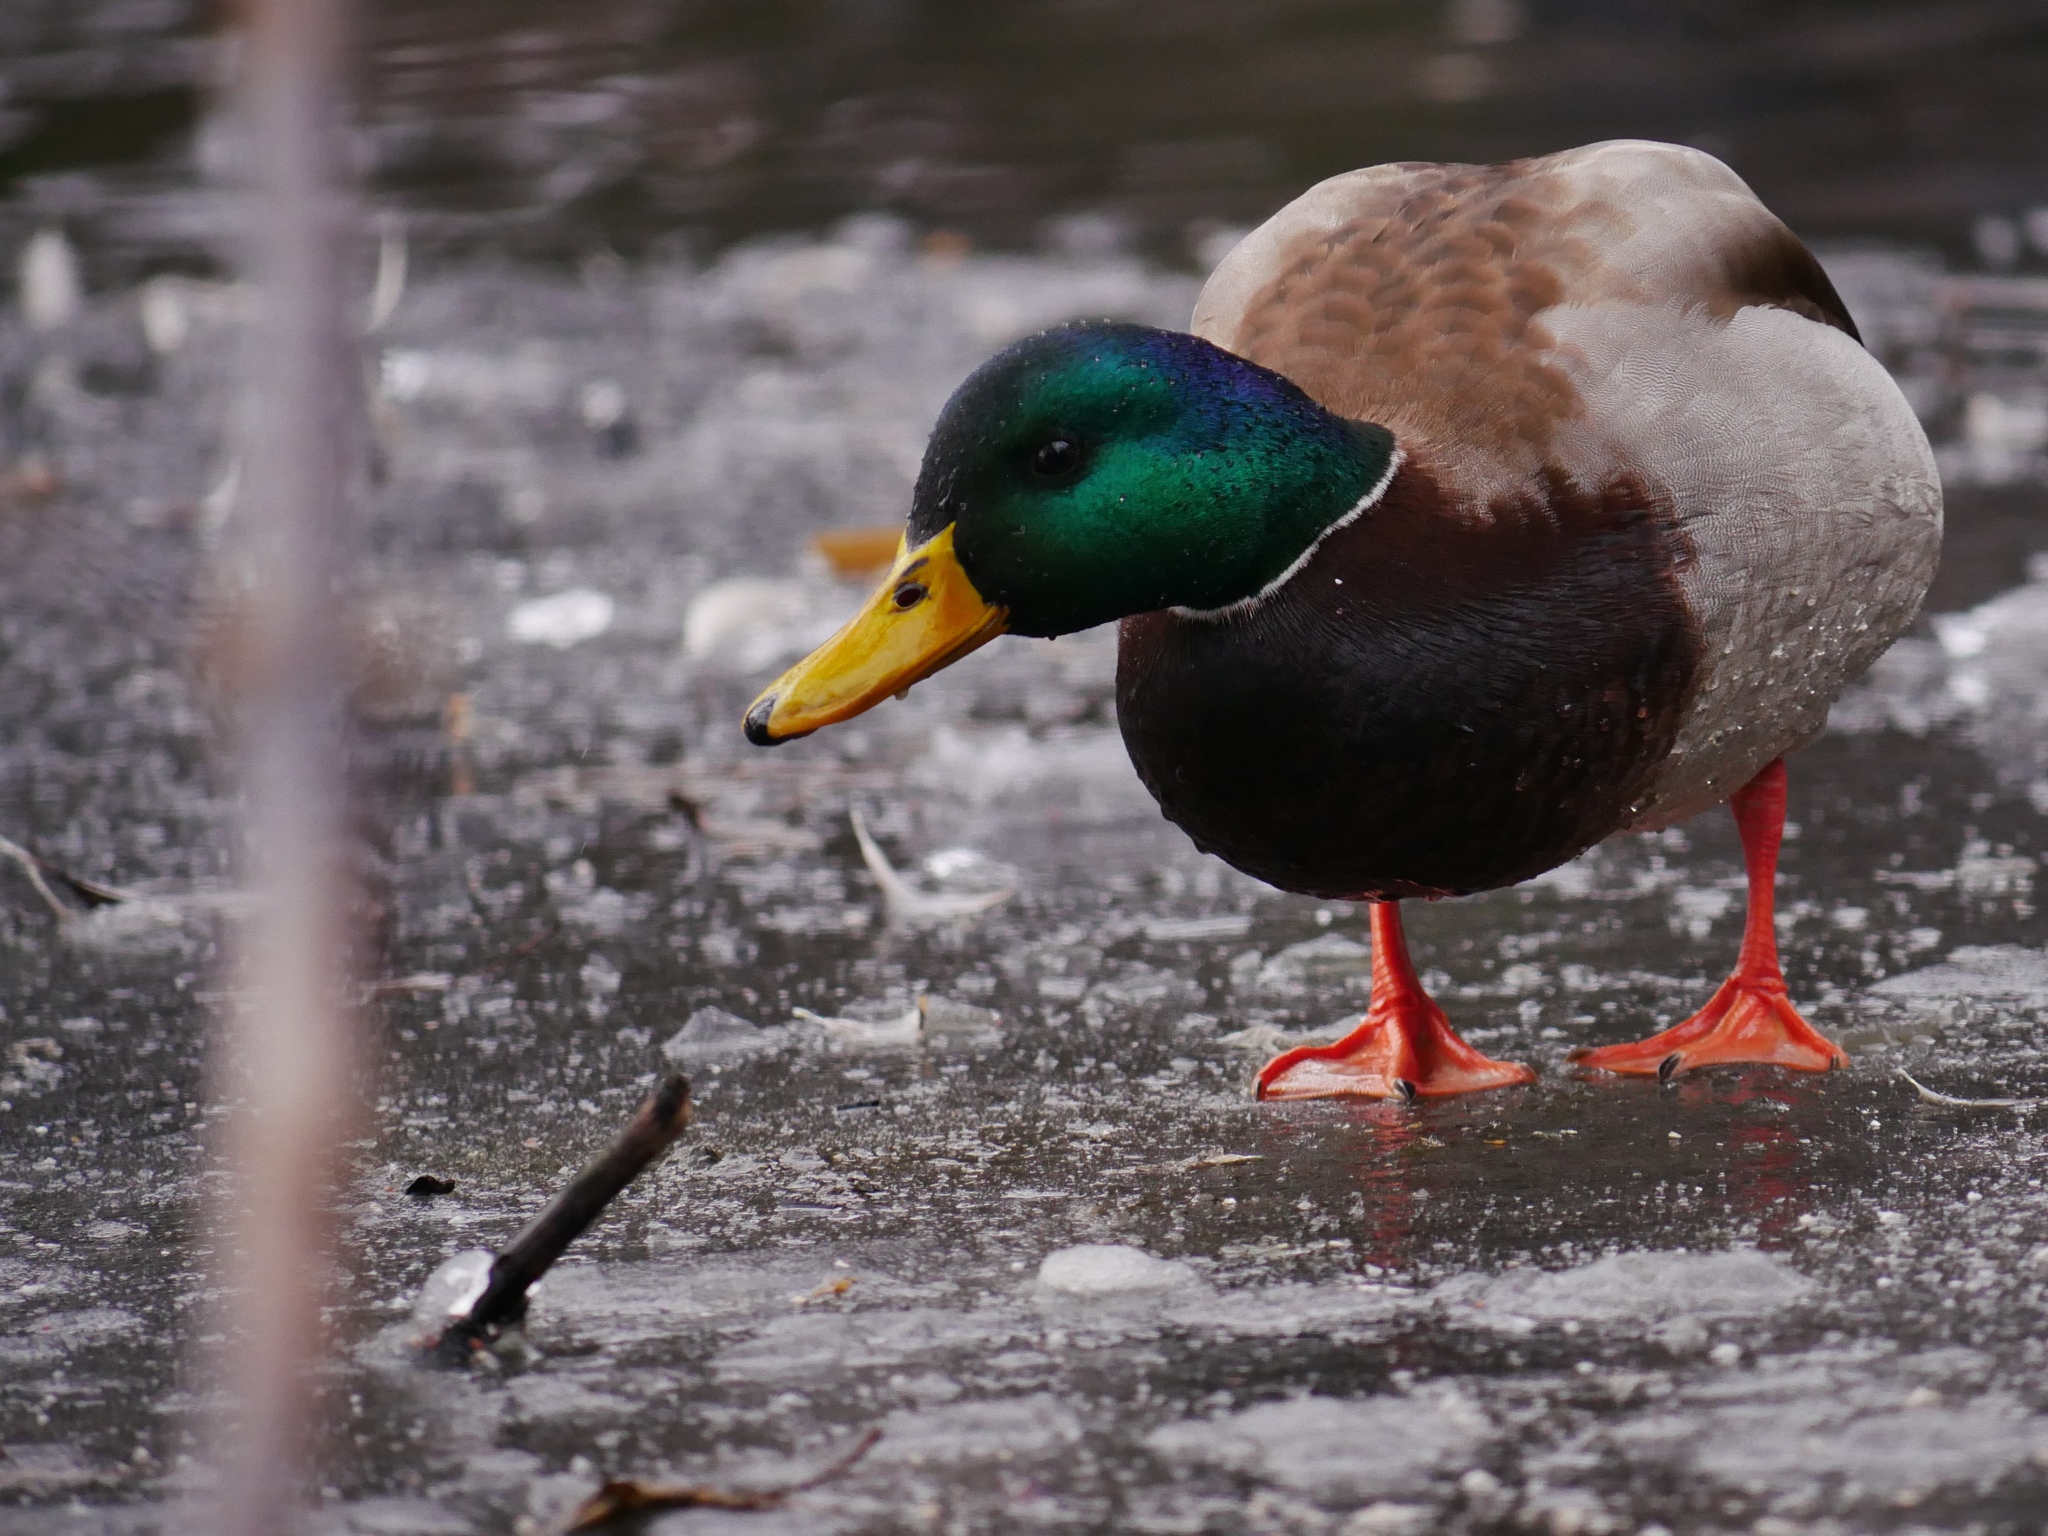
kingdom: Animalia
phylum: Chordata
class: Aves
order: Anseriformes
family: Anatidae
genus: Anas
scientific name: Anas platyrhynchos
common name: Mallard
